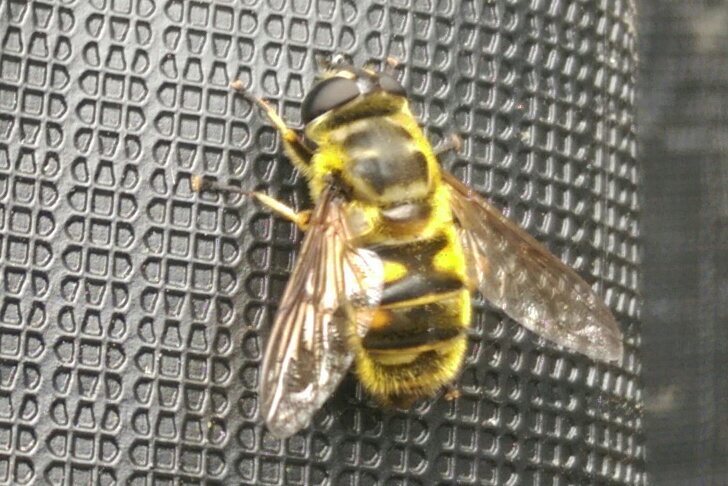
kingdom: Animalia
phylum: Arthropoda
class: Insecta
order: Diptera
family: Syrphidae
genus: Myathropa
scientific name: Myathropa florea
